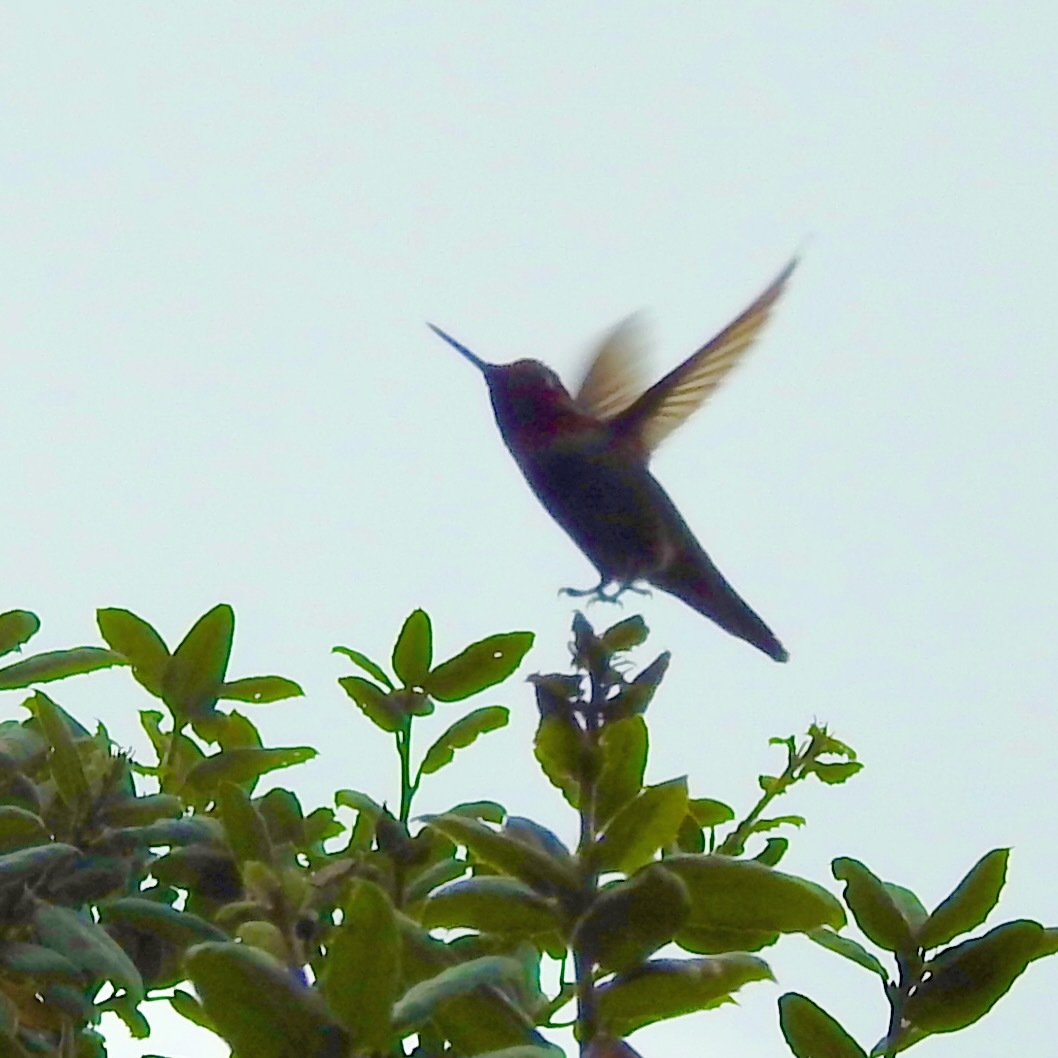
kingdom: Animalia
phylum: Chordata
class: Aves
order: Apodiformes
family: Trochilidae
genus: Calypte
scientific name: Calypte anna
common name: Anna's hummingbird
